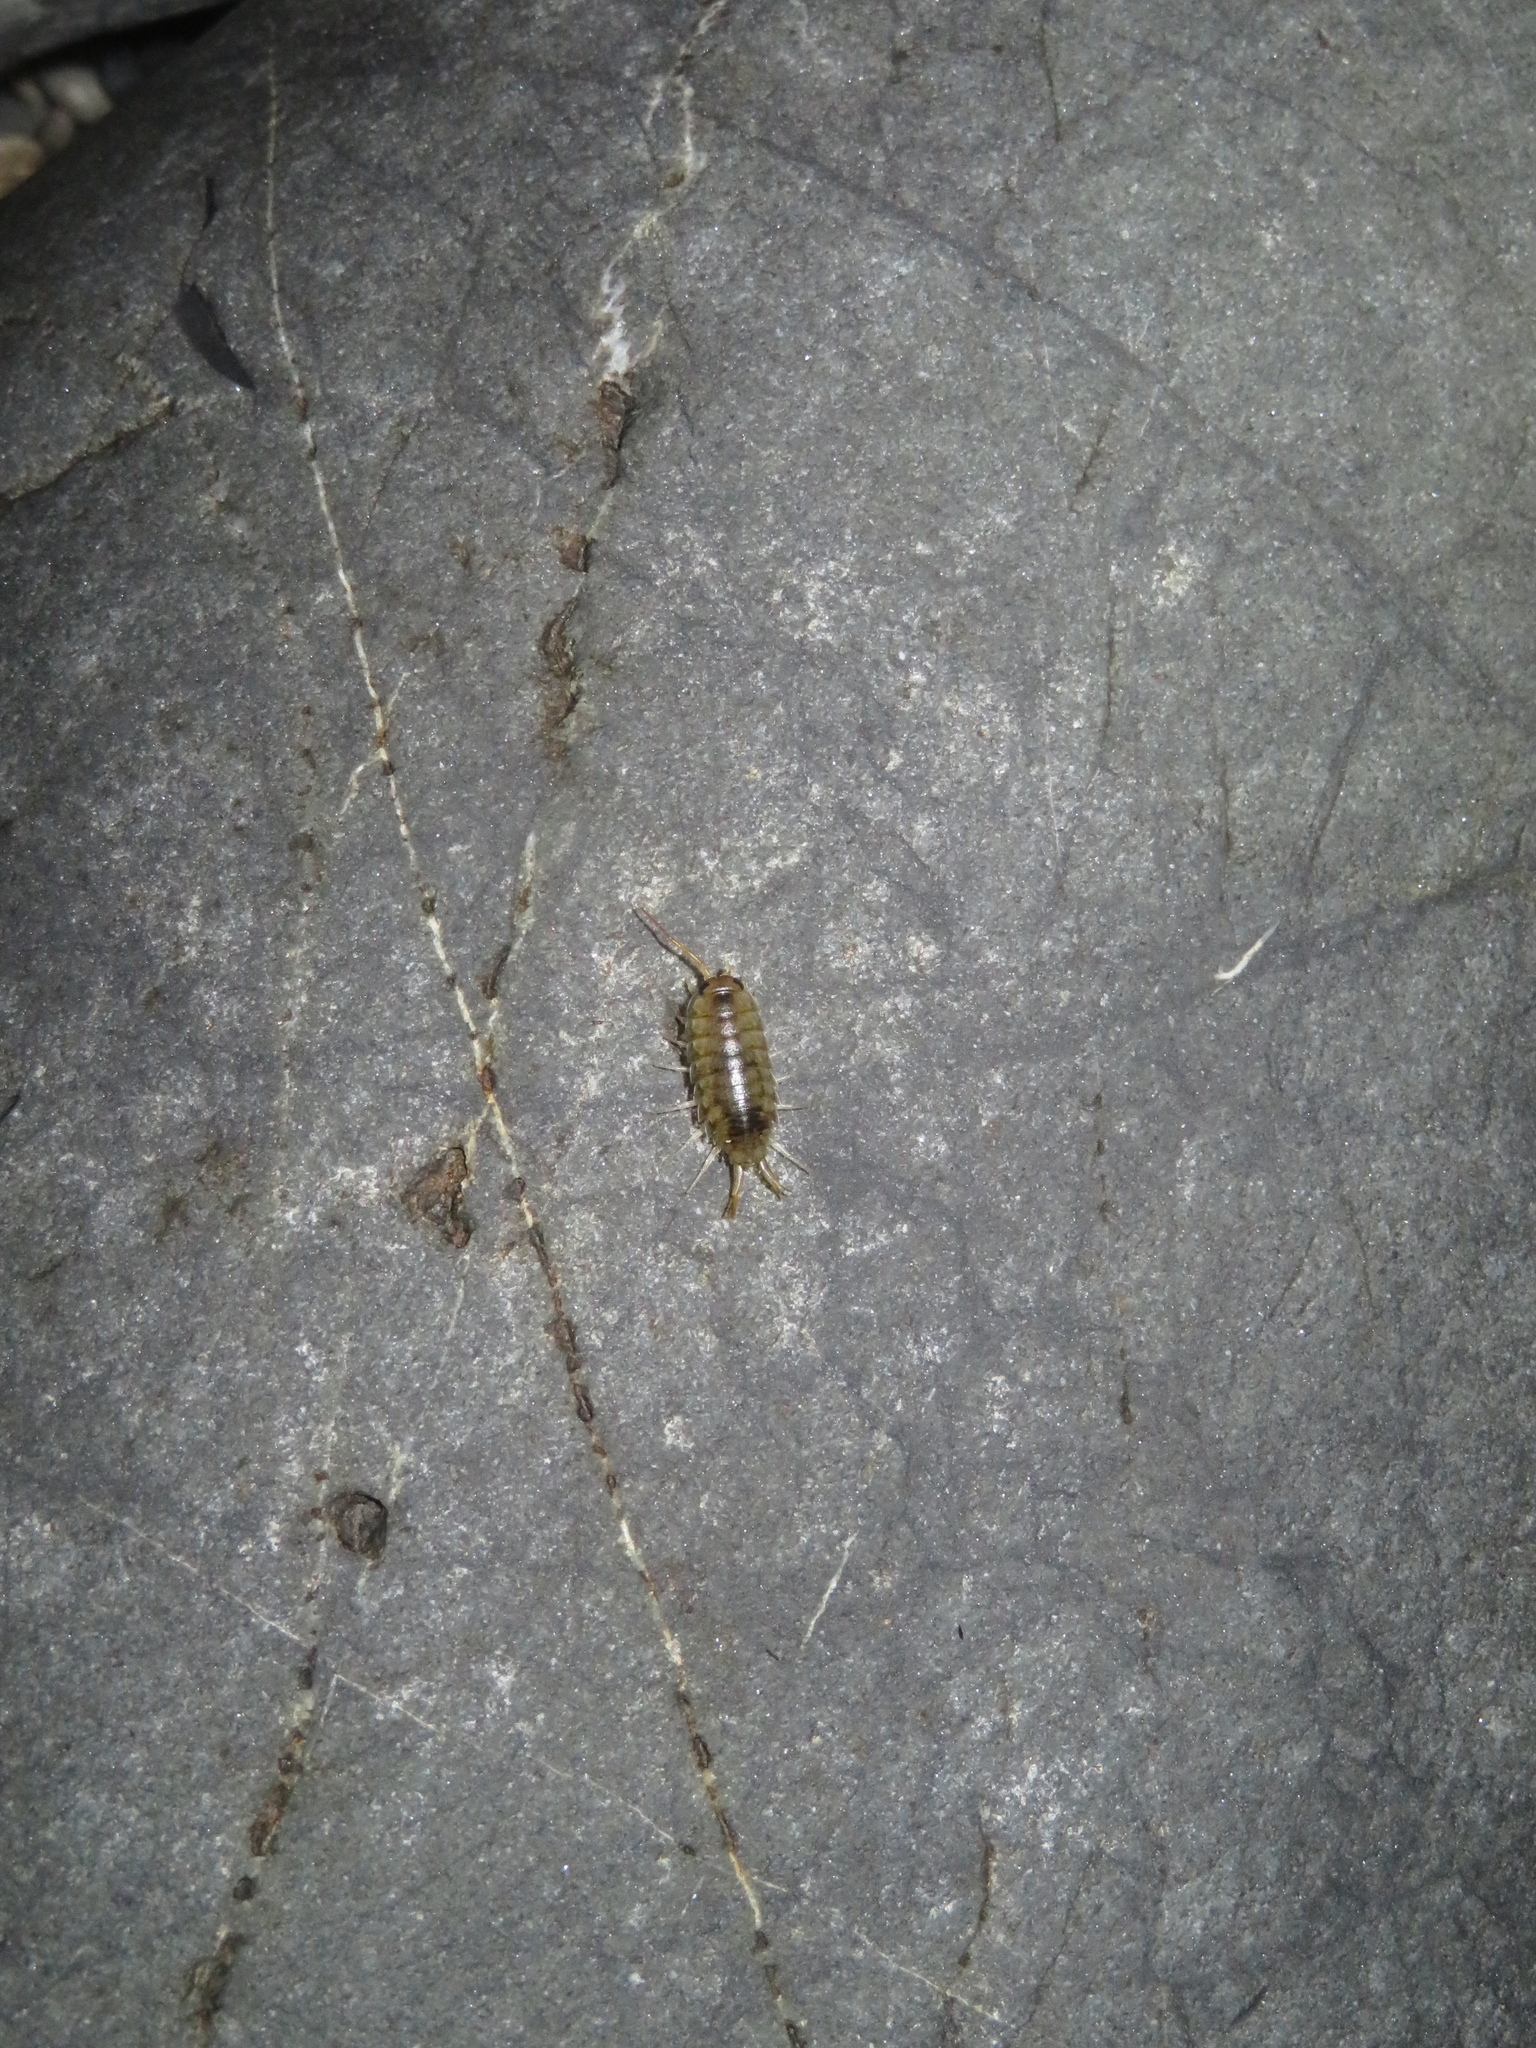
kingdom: Animalia
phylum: Arthropoda
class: Malacostraca
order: Isopoda
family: Ligiidae
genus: Ligia
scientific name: Ligia novizealandiae
